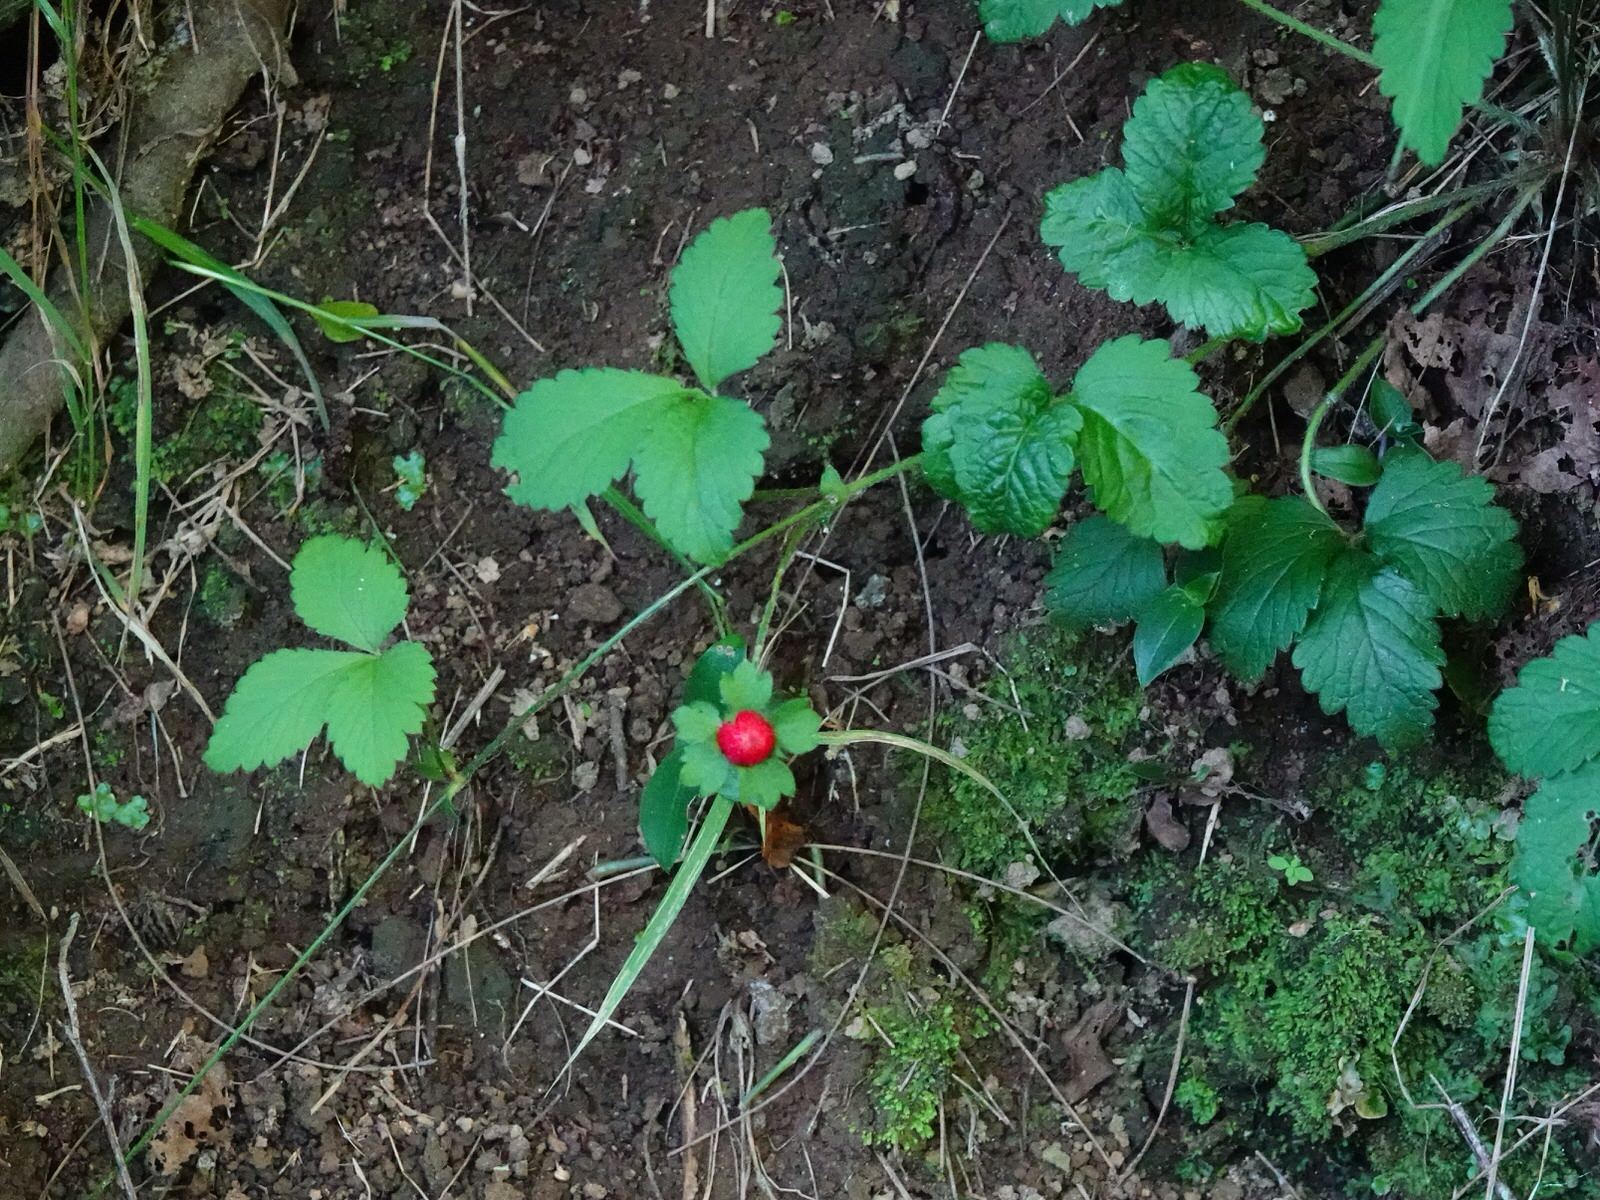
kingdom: Plantae
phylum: Tracheophyta
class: Magnoliopsida
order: Rosales
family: Rosaceae
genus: Potentilla
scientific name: Potentilla indica
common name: Yellow-flowered strawberry
